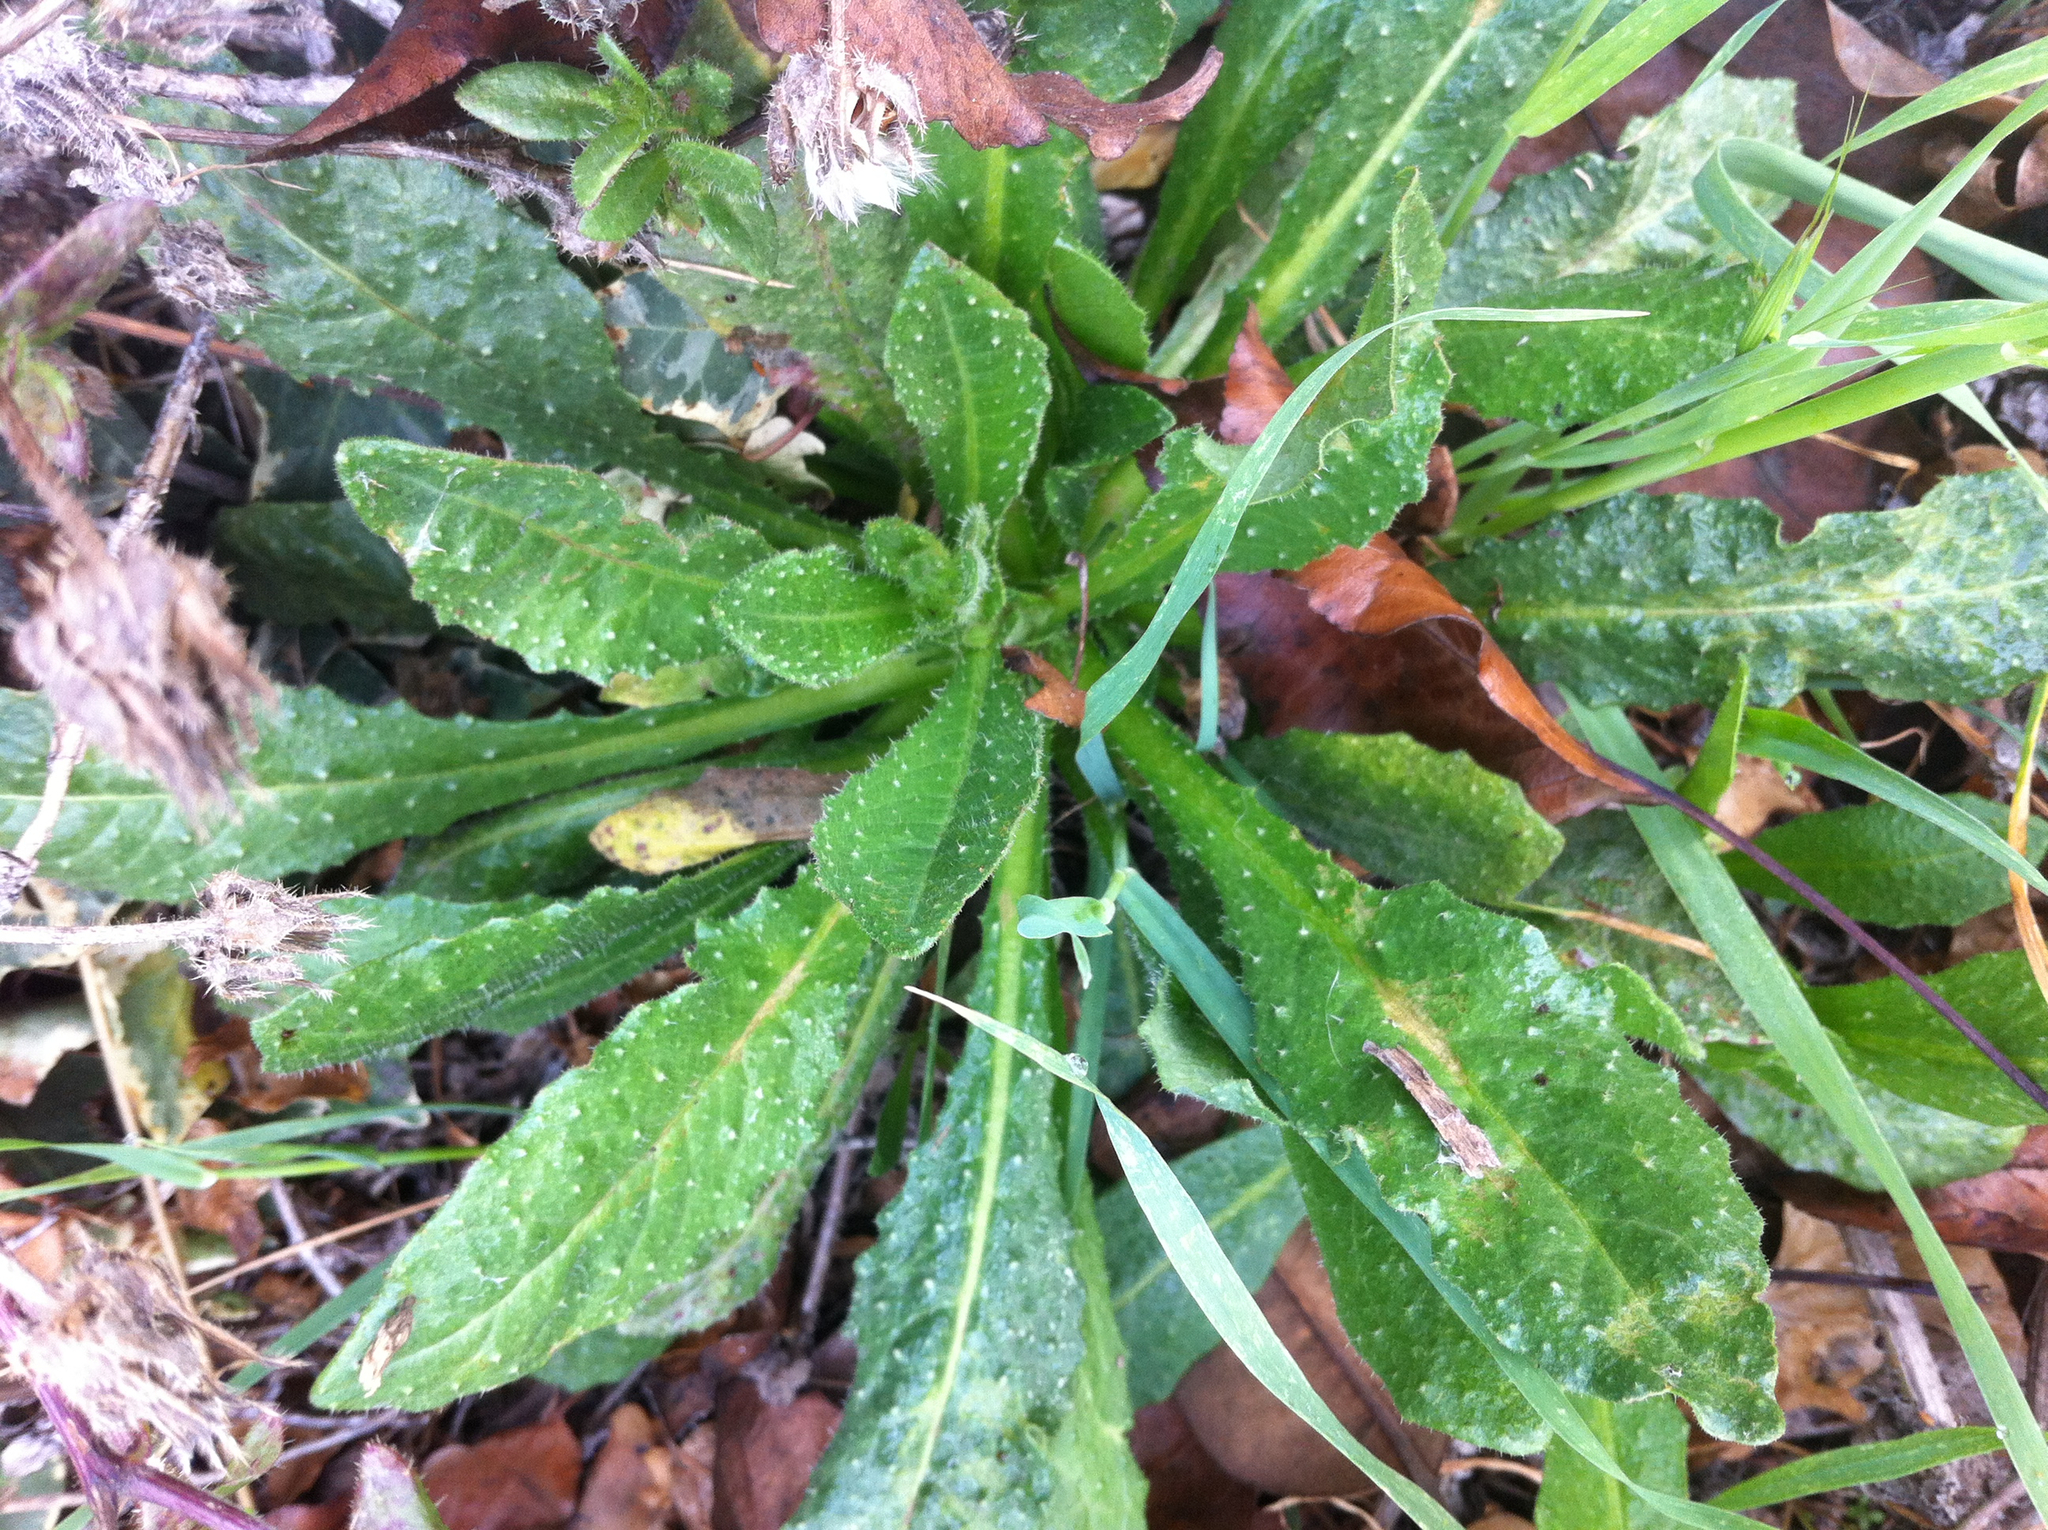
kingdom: Plantae
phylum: Tracheophyta
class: Magnoliopsida
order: Asterales
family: Asteraceae
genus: Helminthotheca
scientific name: Helminthotheca echioides
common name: Ox-tongue
